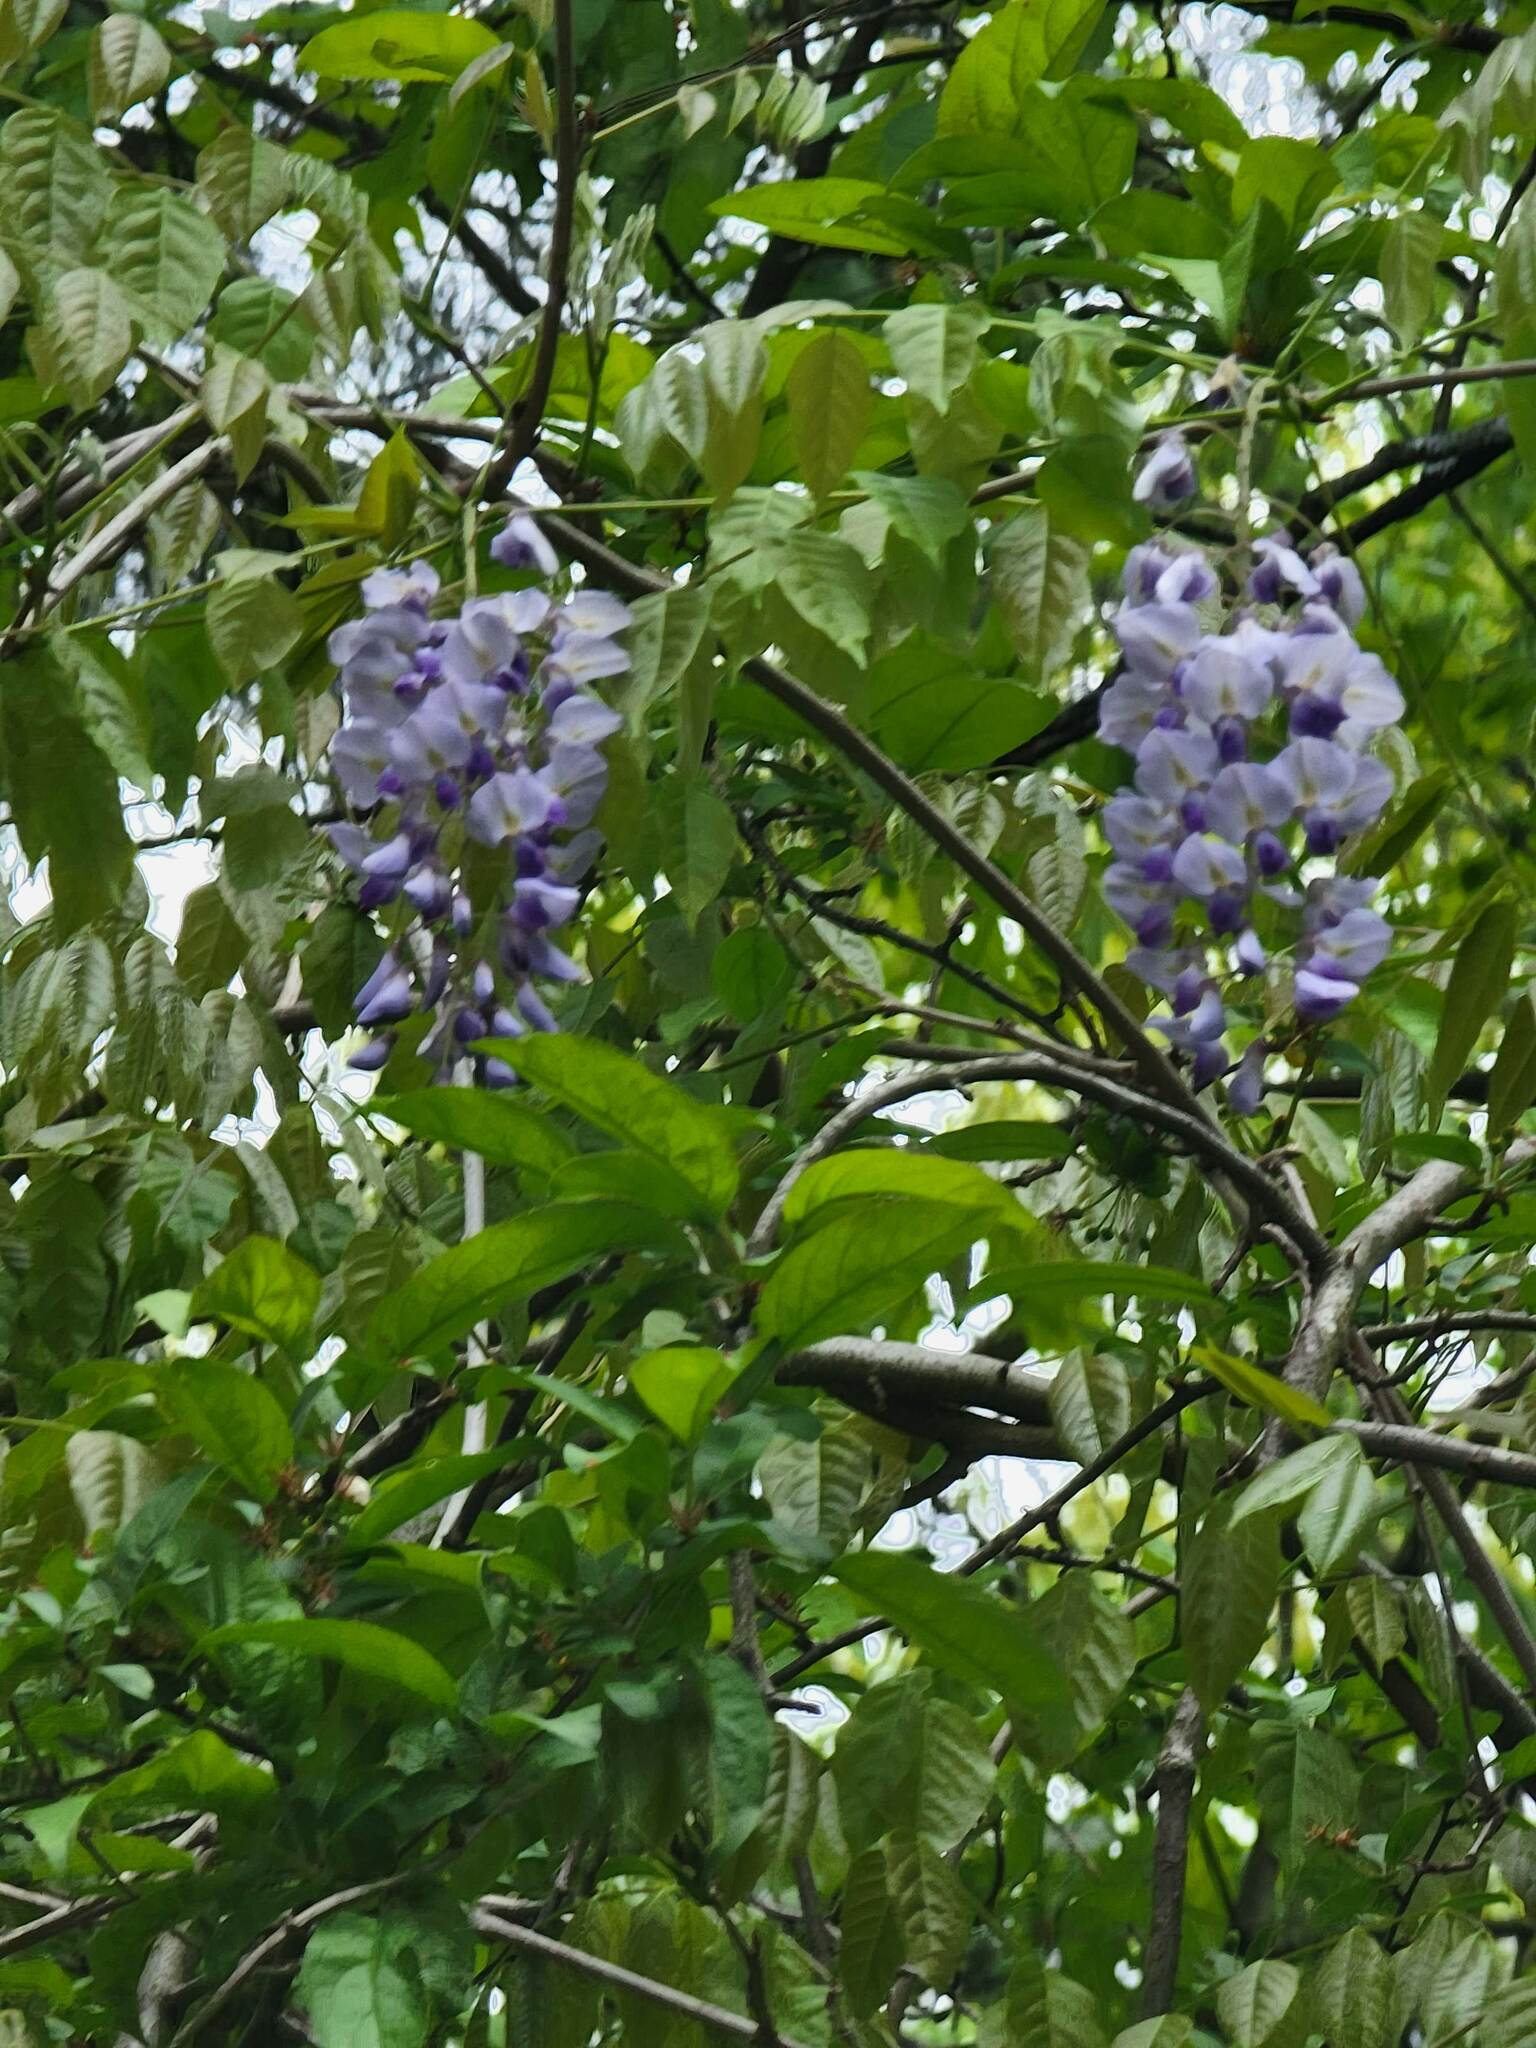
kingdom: Plantae
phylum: Tracheophyta
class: Magnoliopsida
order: Fabales
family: Fabaceae
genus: Wisteria
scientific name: Wisteria sinensis
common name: Chinese wisteria
